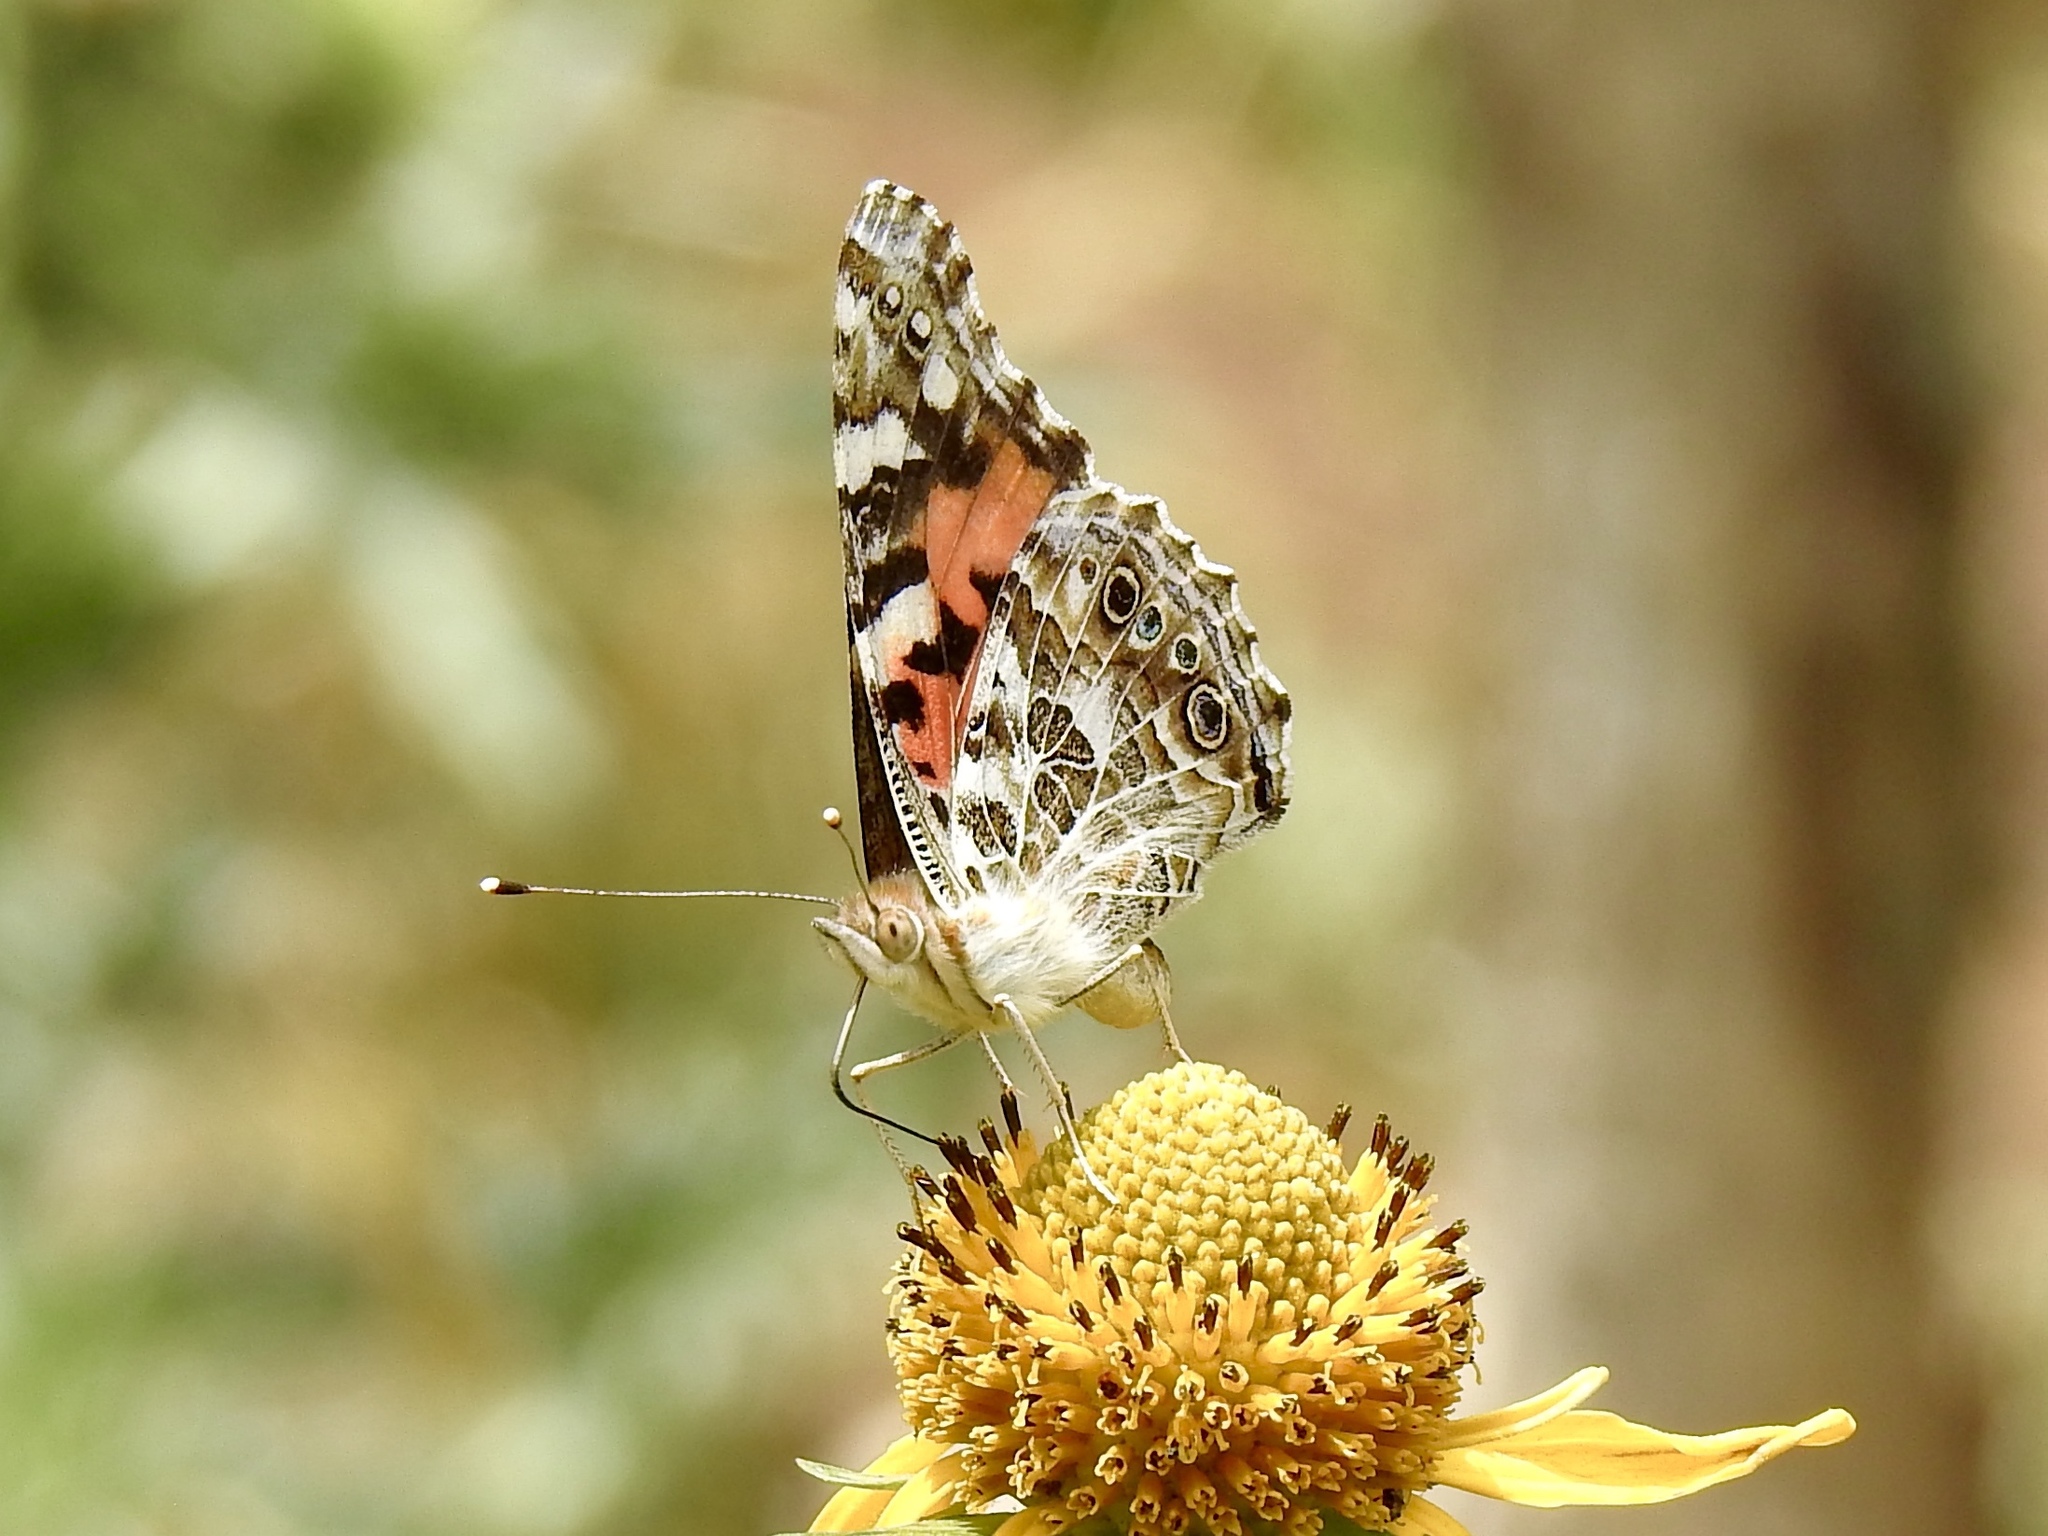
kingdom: Animalia
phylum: Arthropoda
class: Insecta
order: Lepidoptera
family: Nymphalidae
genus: Vanessa
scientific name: Vanessa cardui
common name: Painted lady
